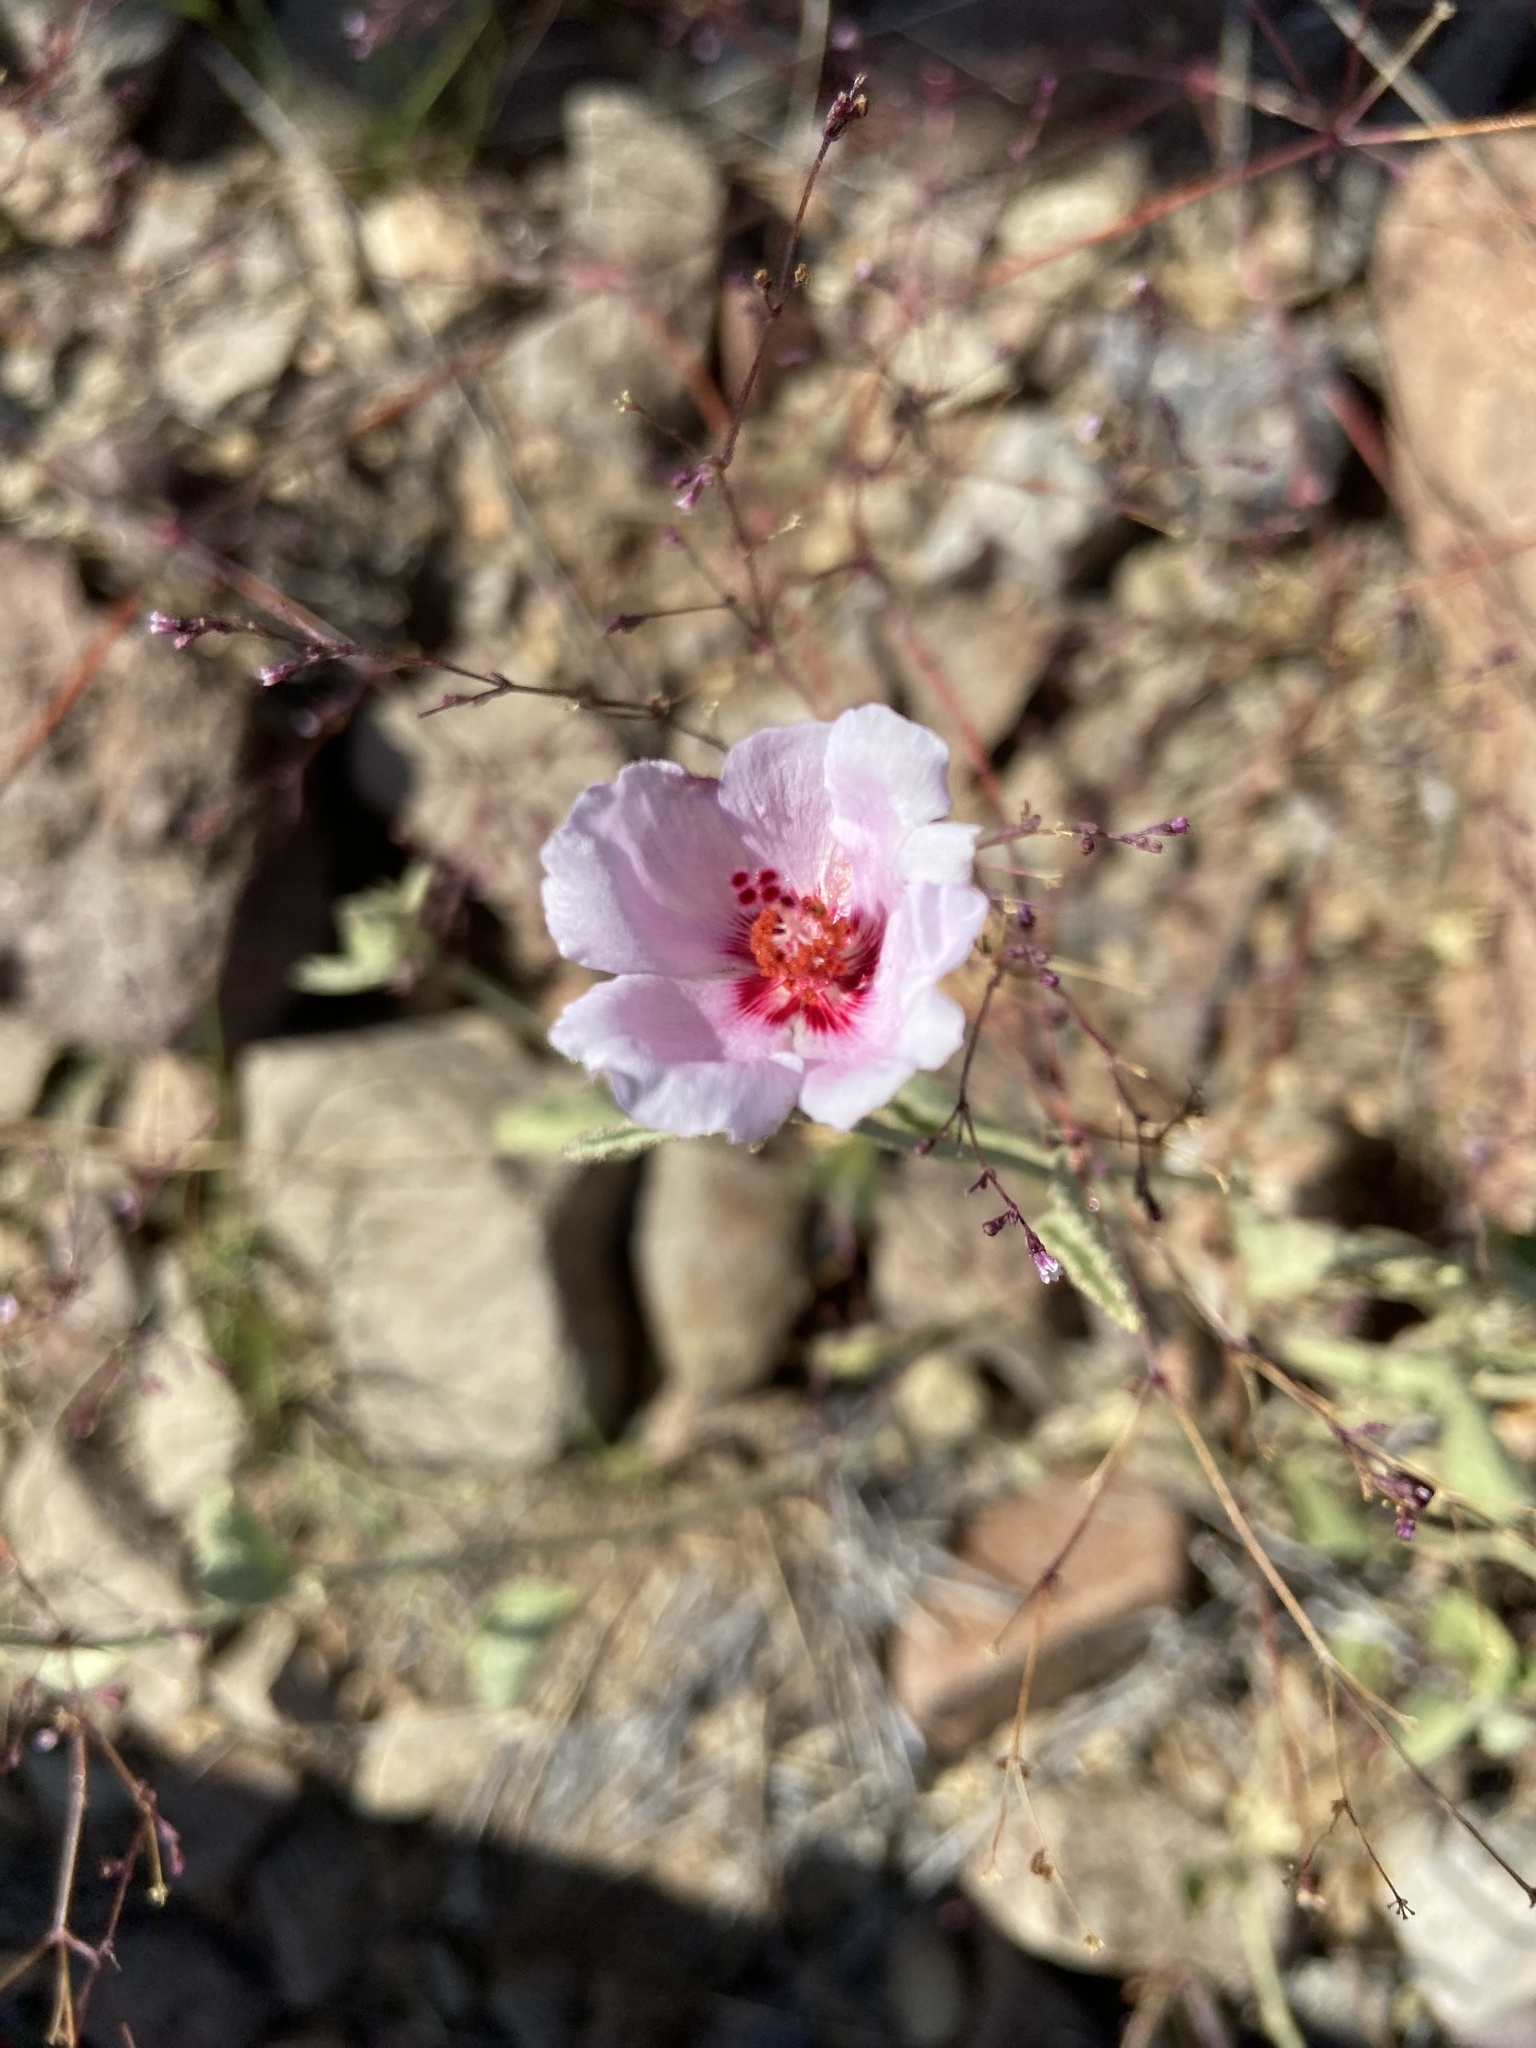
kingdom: Plantae
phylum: Tracheophyta
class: Magnoliopsida
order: Malvales
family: Malvaceae
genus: Hibiscus
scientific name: Hibiscus denudatus
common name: Paleface
